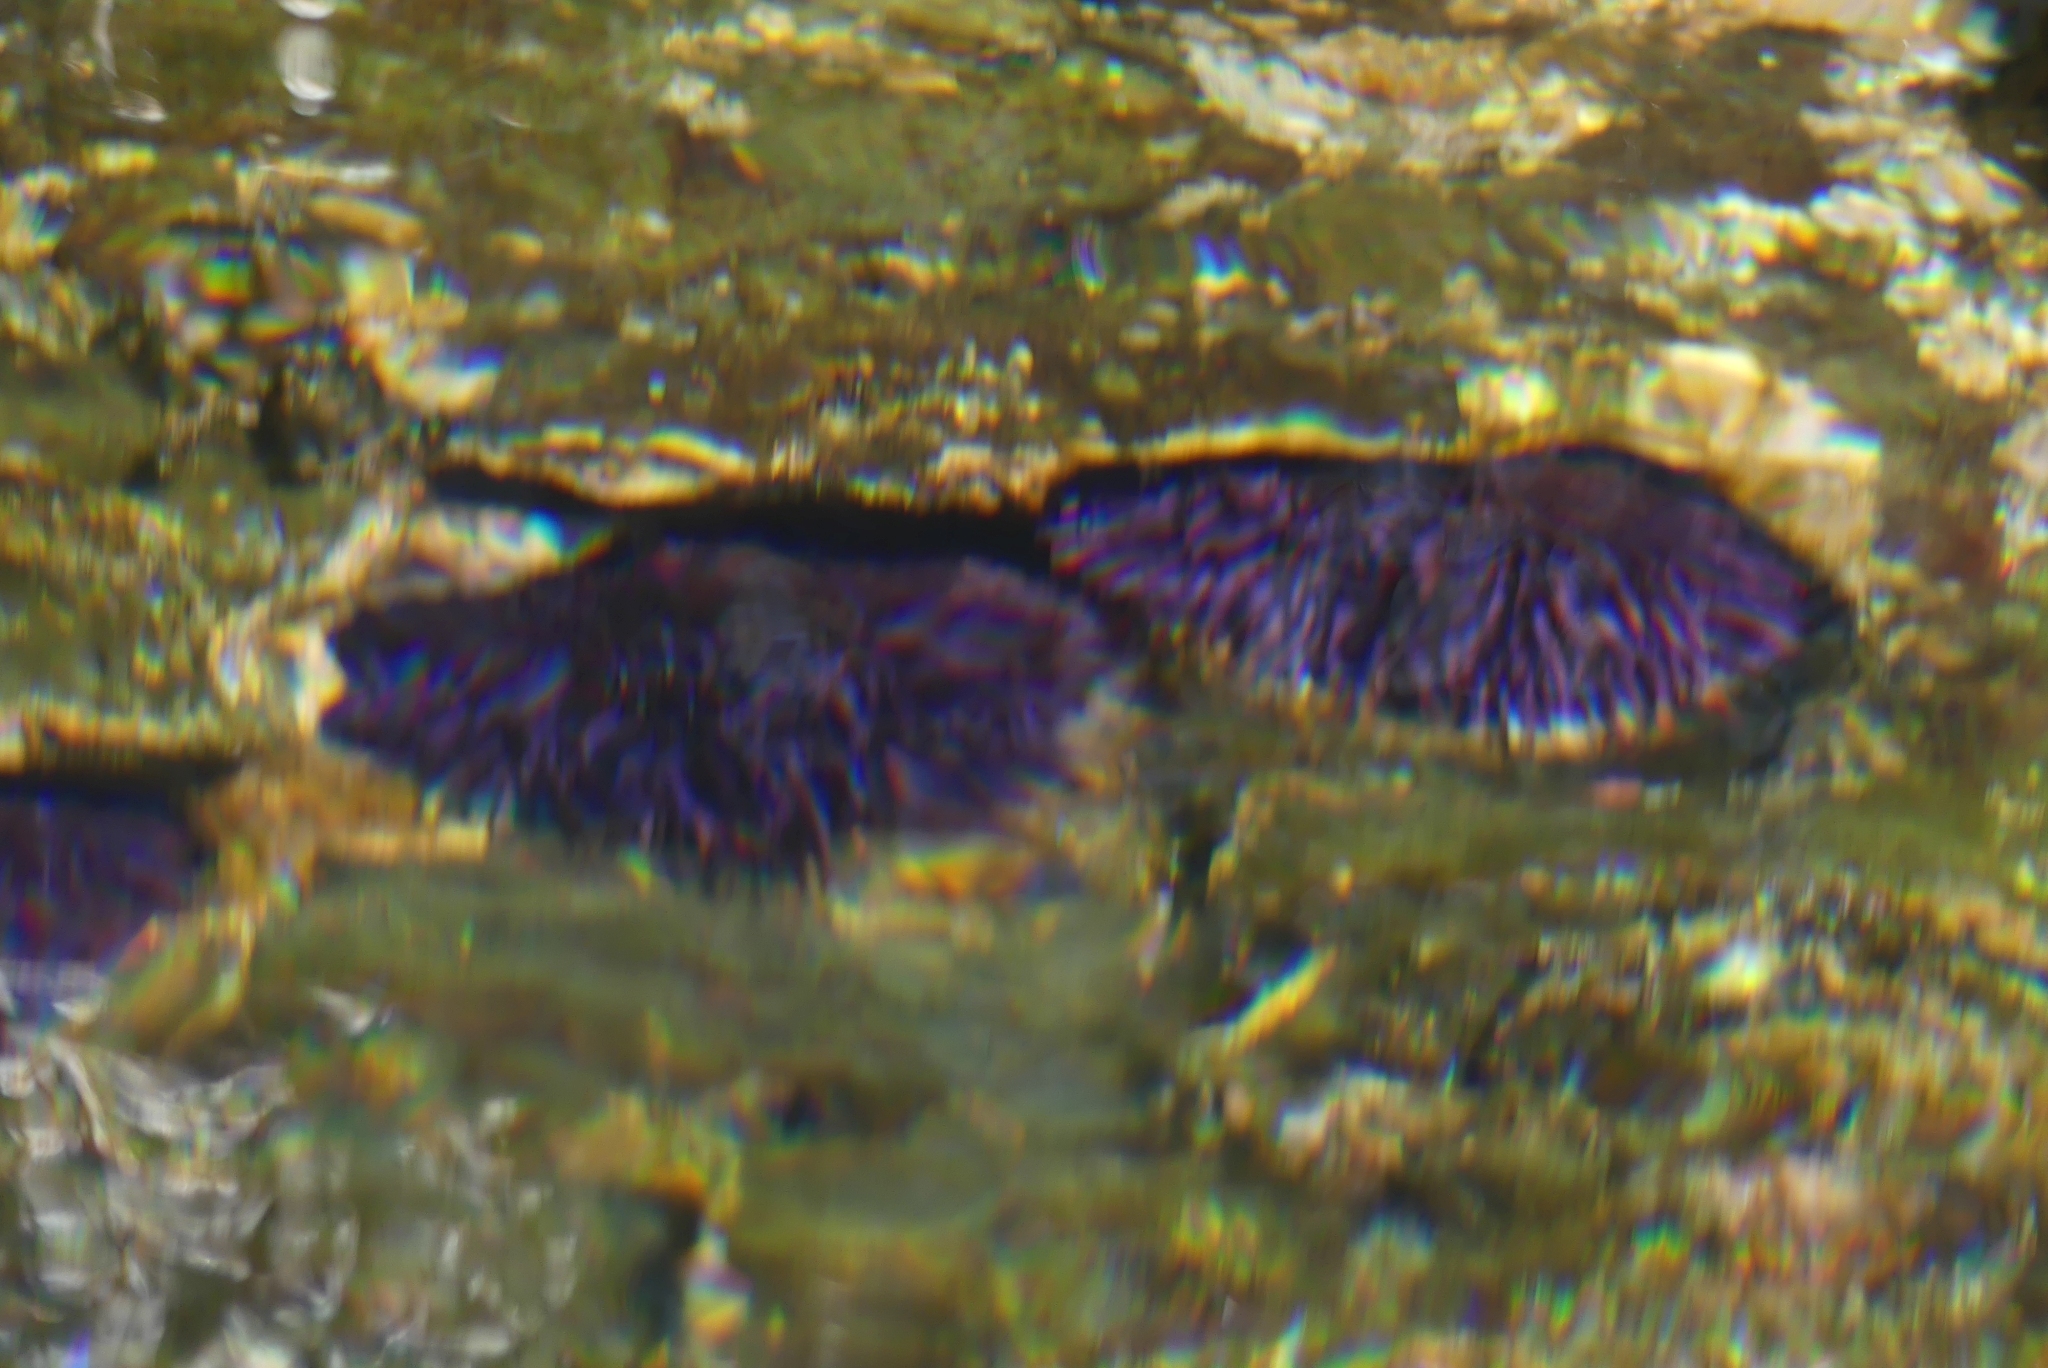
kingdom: Animalia
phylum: Echinodermata
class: Echinoidea
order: Camarodonta
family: Strongylocentrotidae
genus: Strongylocentrotus
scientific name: Strongylocentrotus purpuratus
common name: Purple sea urchin
